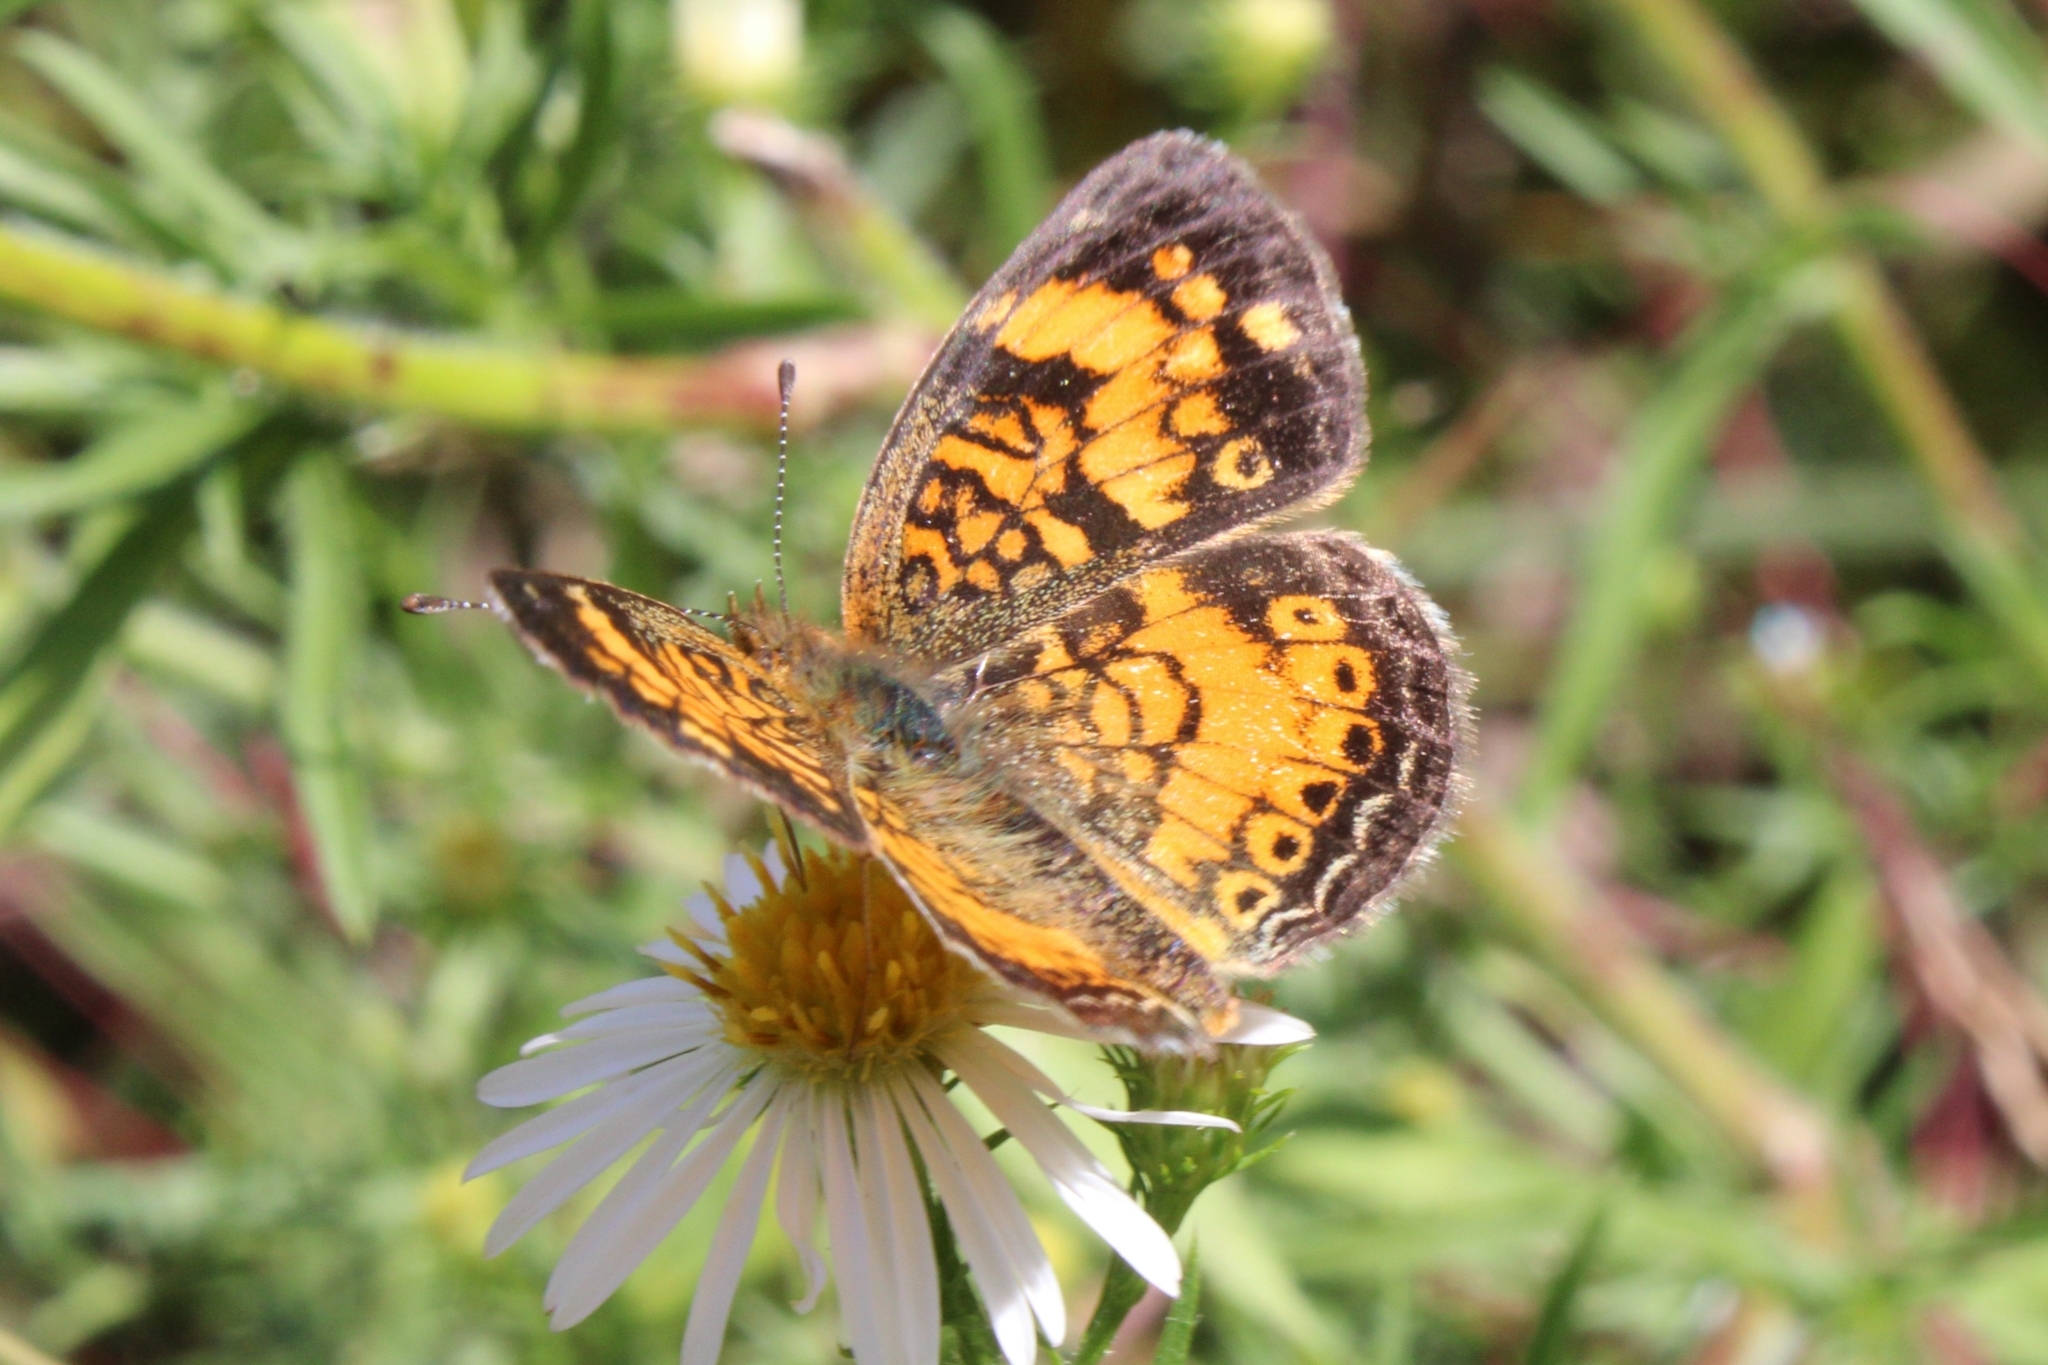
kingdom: Animalia
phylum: Arthropoda
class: Insecta
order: Lepidoptera
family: Nymphalidae
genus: Phyciodes
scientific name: Phyciodes tharos
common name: Pearl crescent
